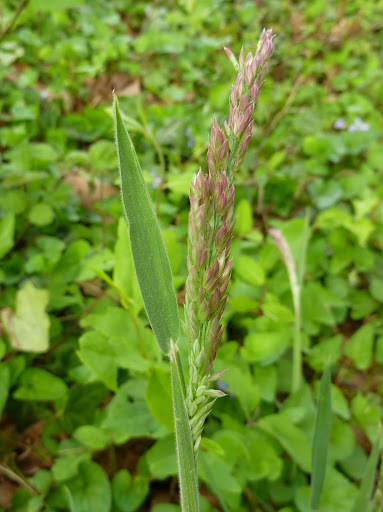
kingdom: Plantae
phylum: Tracheophyta
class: Liliopsida
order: Poales
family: Poaceae
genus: Holcus
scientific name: Holcus lanatus
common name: Yorkshire-fog
